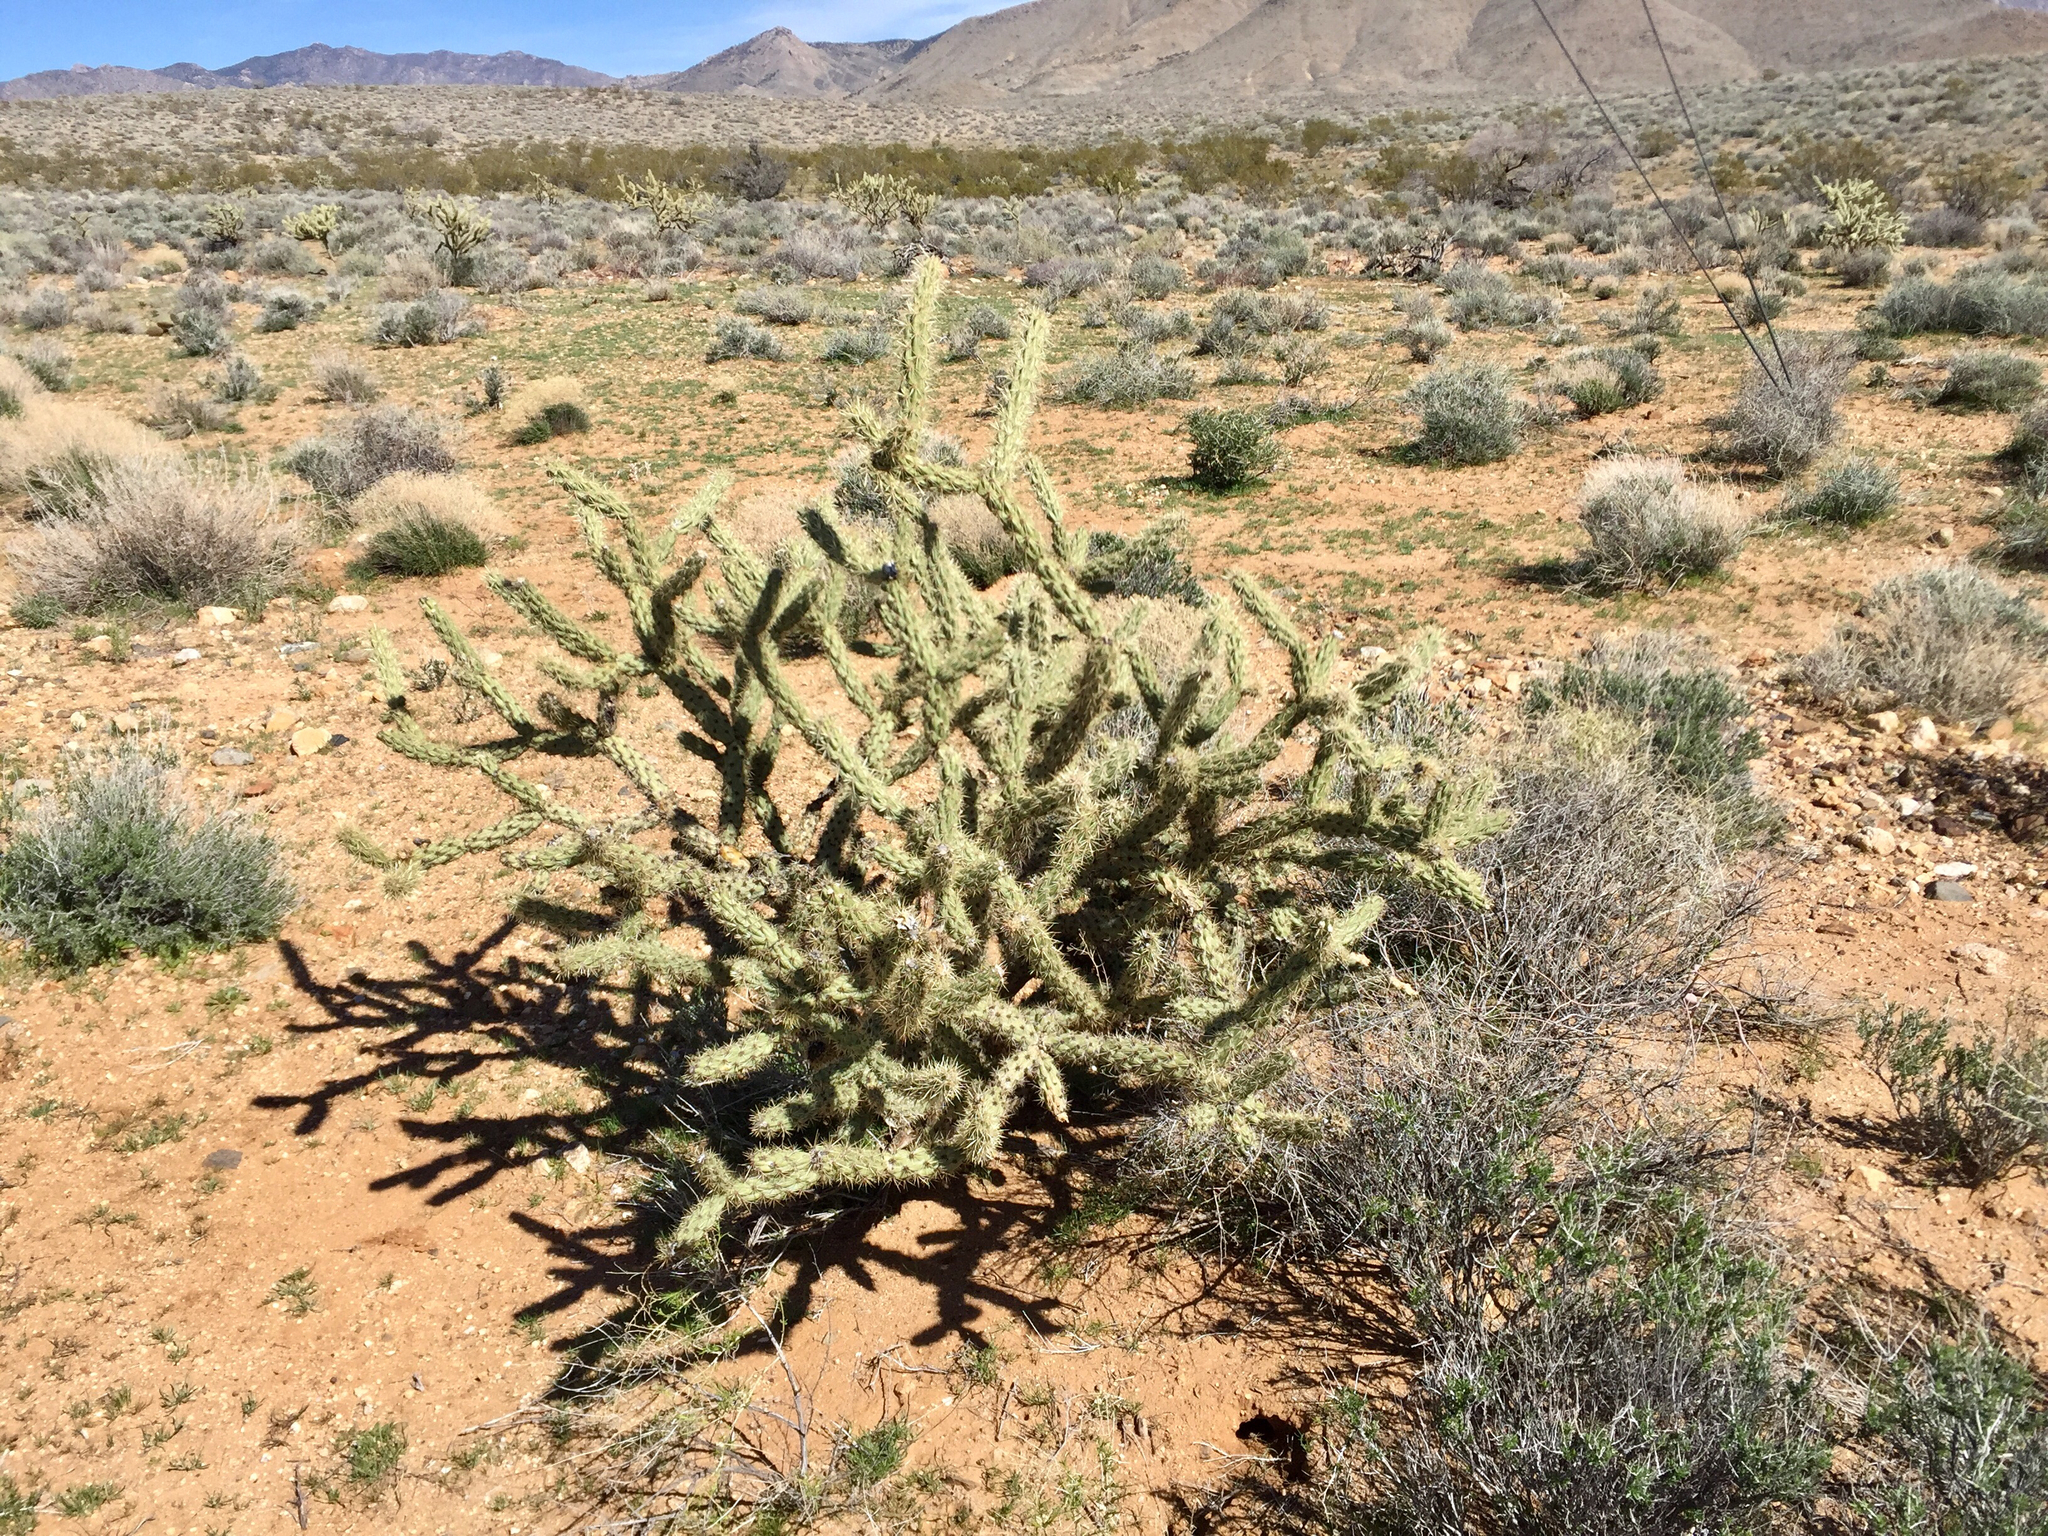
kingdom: Plantae
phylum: Tracheophyta
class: Magnoliopsida
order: Caryophyllales
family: Cactaceae
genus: Cylindropuntia
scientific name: Cylindropuntia acanthocarpa
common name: Buckhorn cholla
